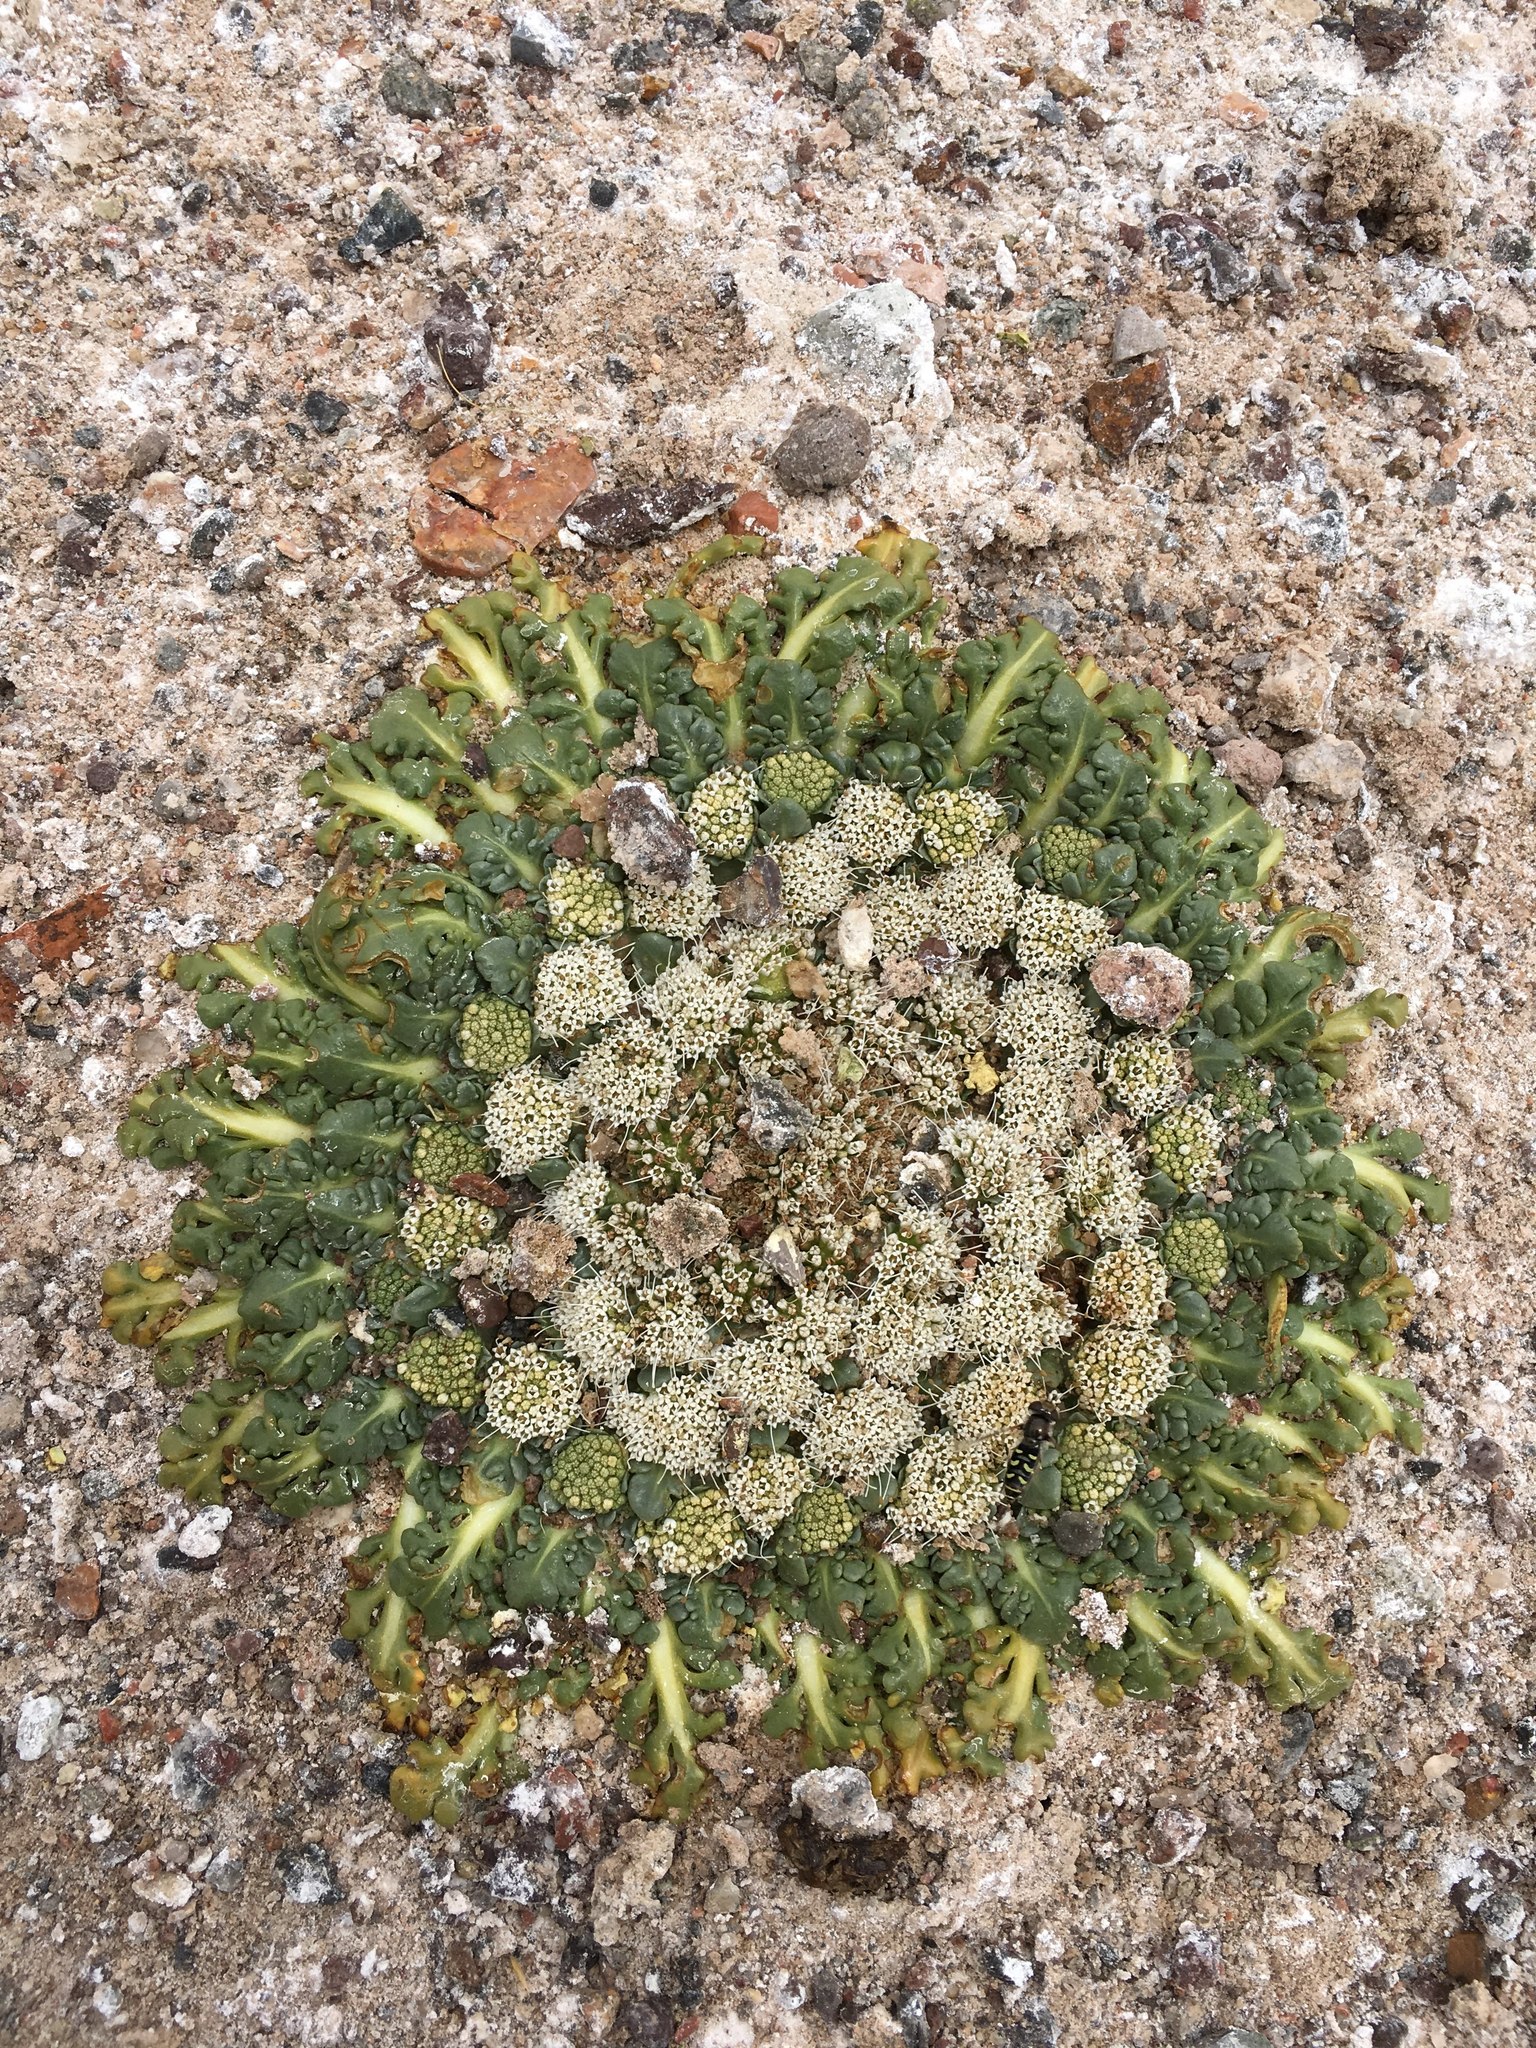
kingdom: Plantae
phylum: Tracheophyta
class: Magnoliopsida
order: Asterales
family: Calyceraceae
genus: Gamocarpha
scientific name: Gamocarpha caespitosa
